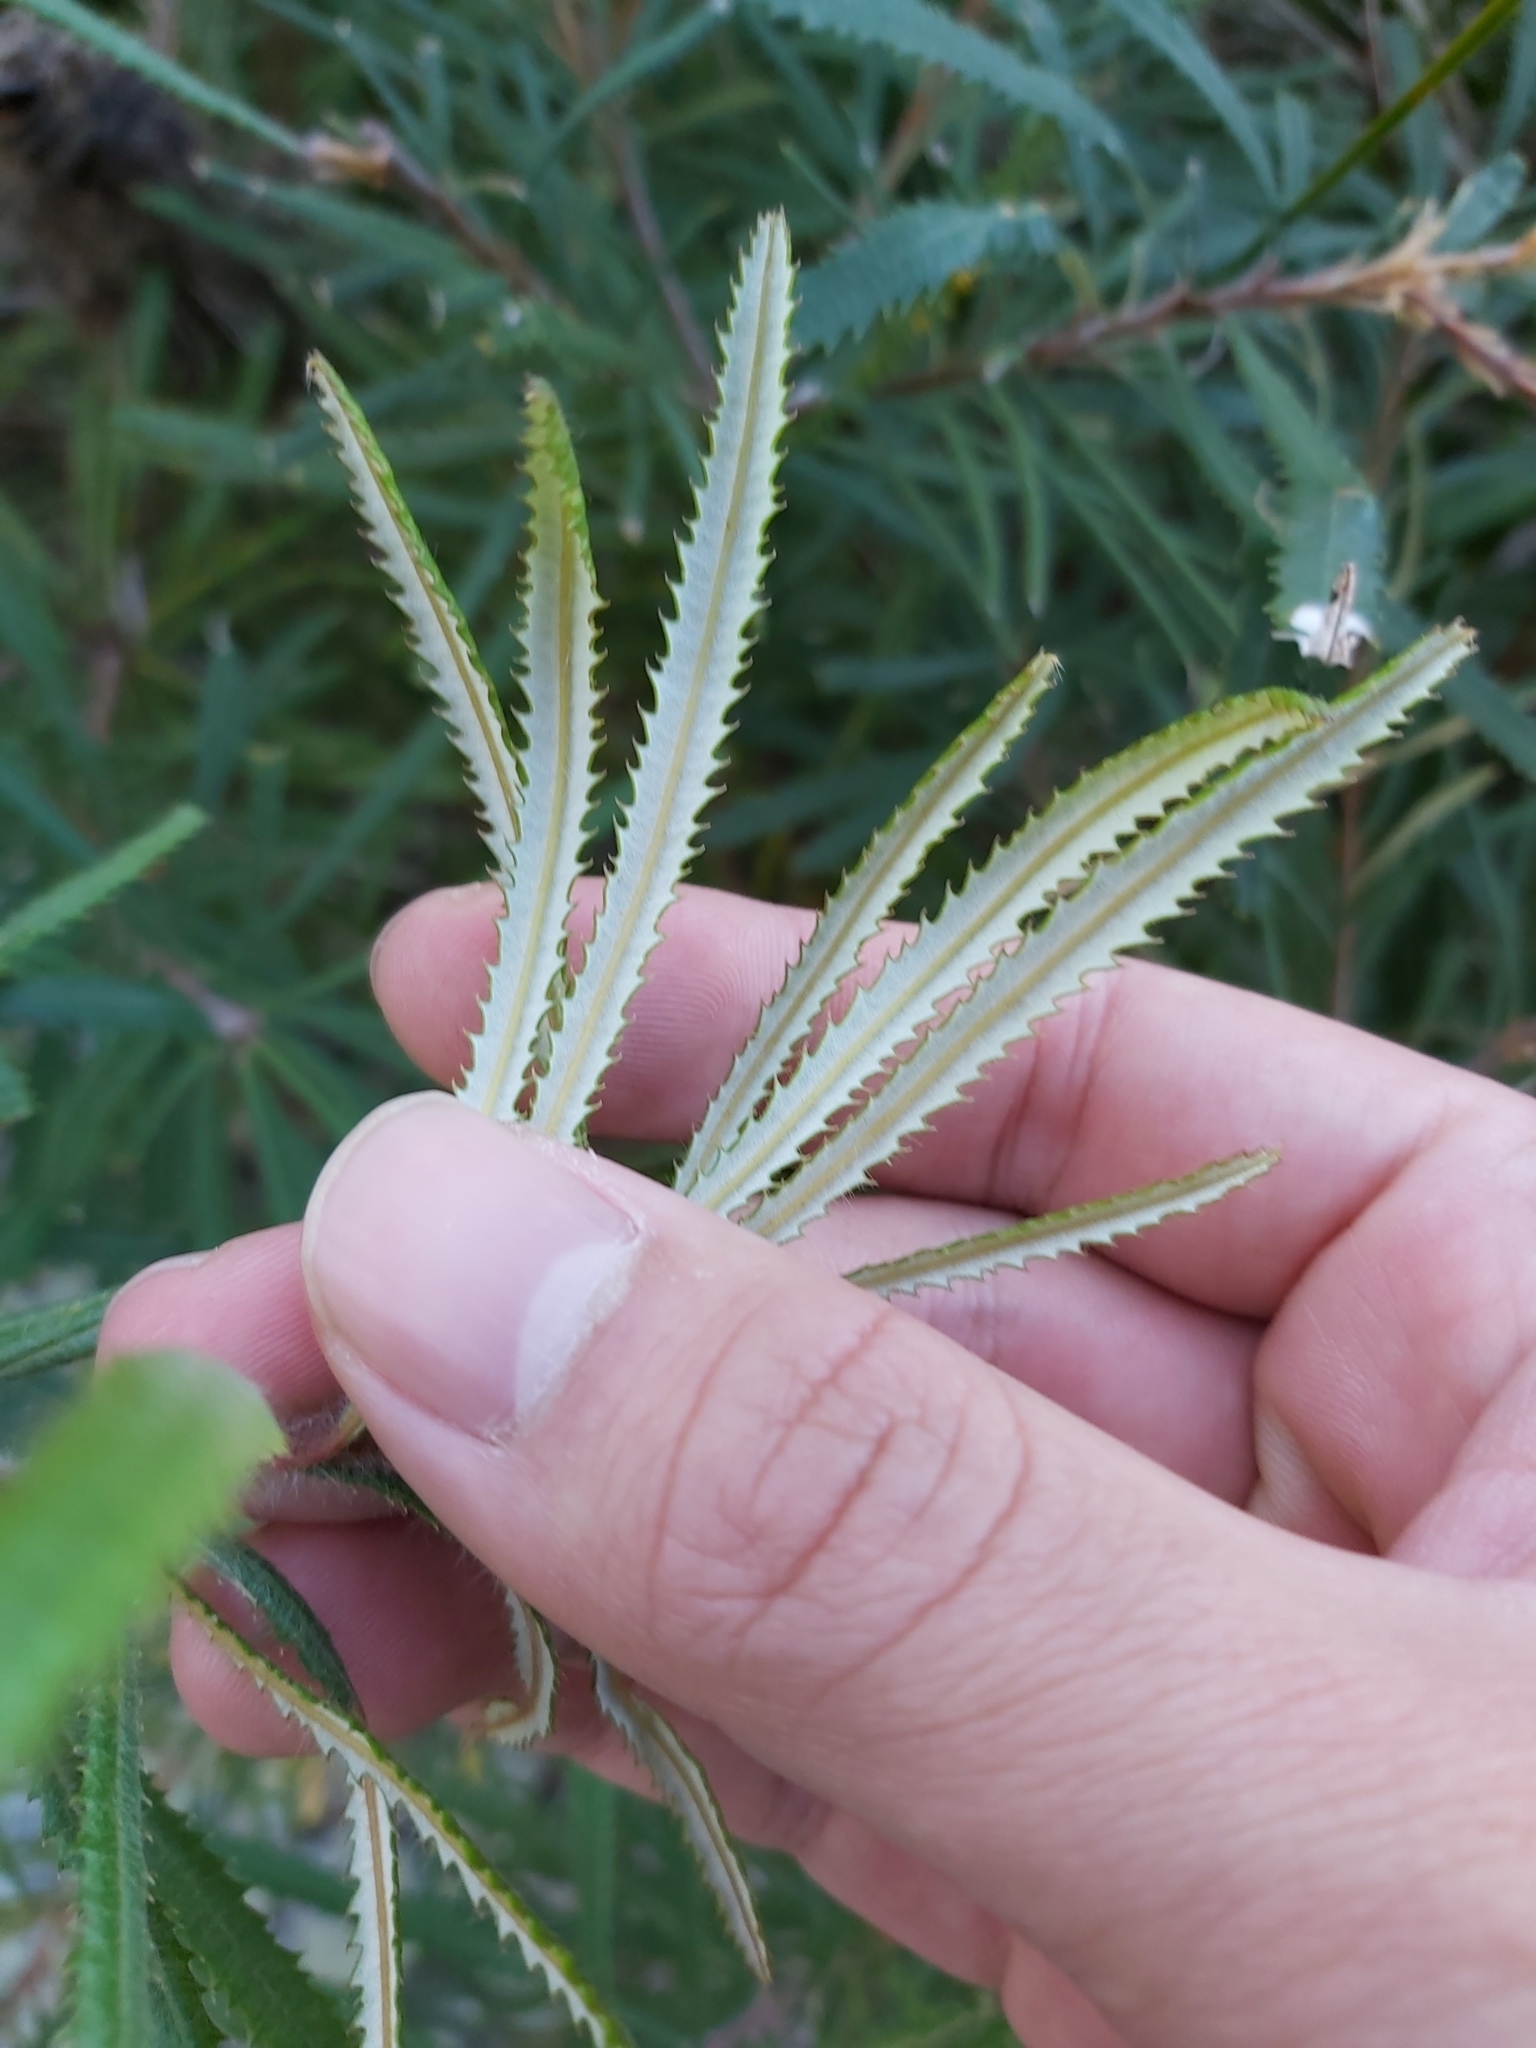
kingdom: Plantae
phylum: Tracheophyta
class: Magnoliopsida
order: Proteales
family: Proteaceae
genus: Banksia
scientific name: Banksia spinulosa
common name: Hairpin banksia
